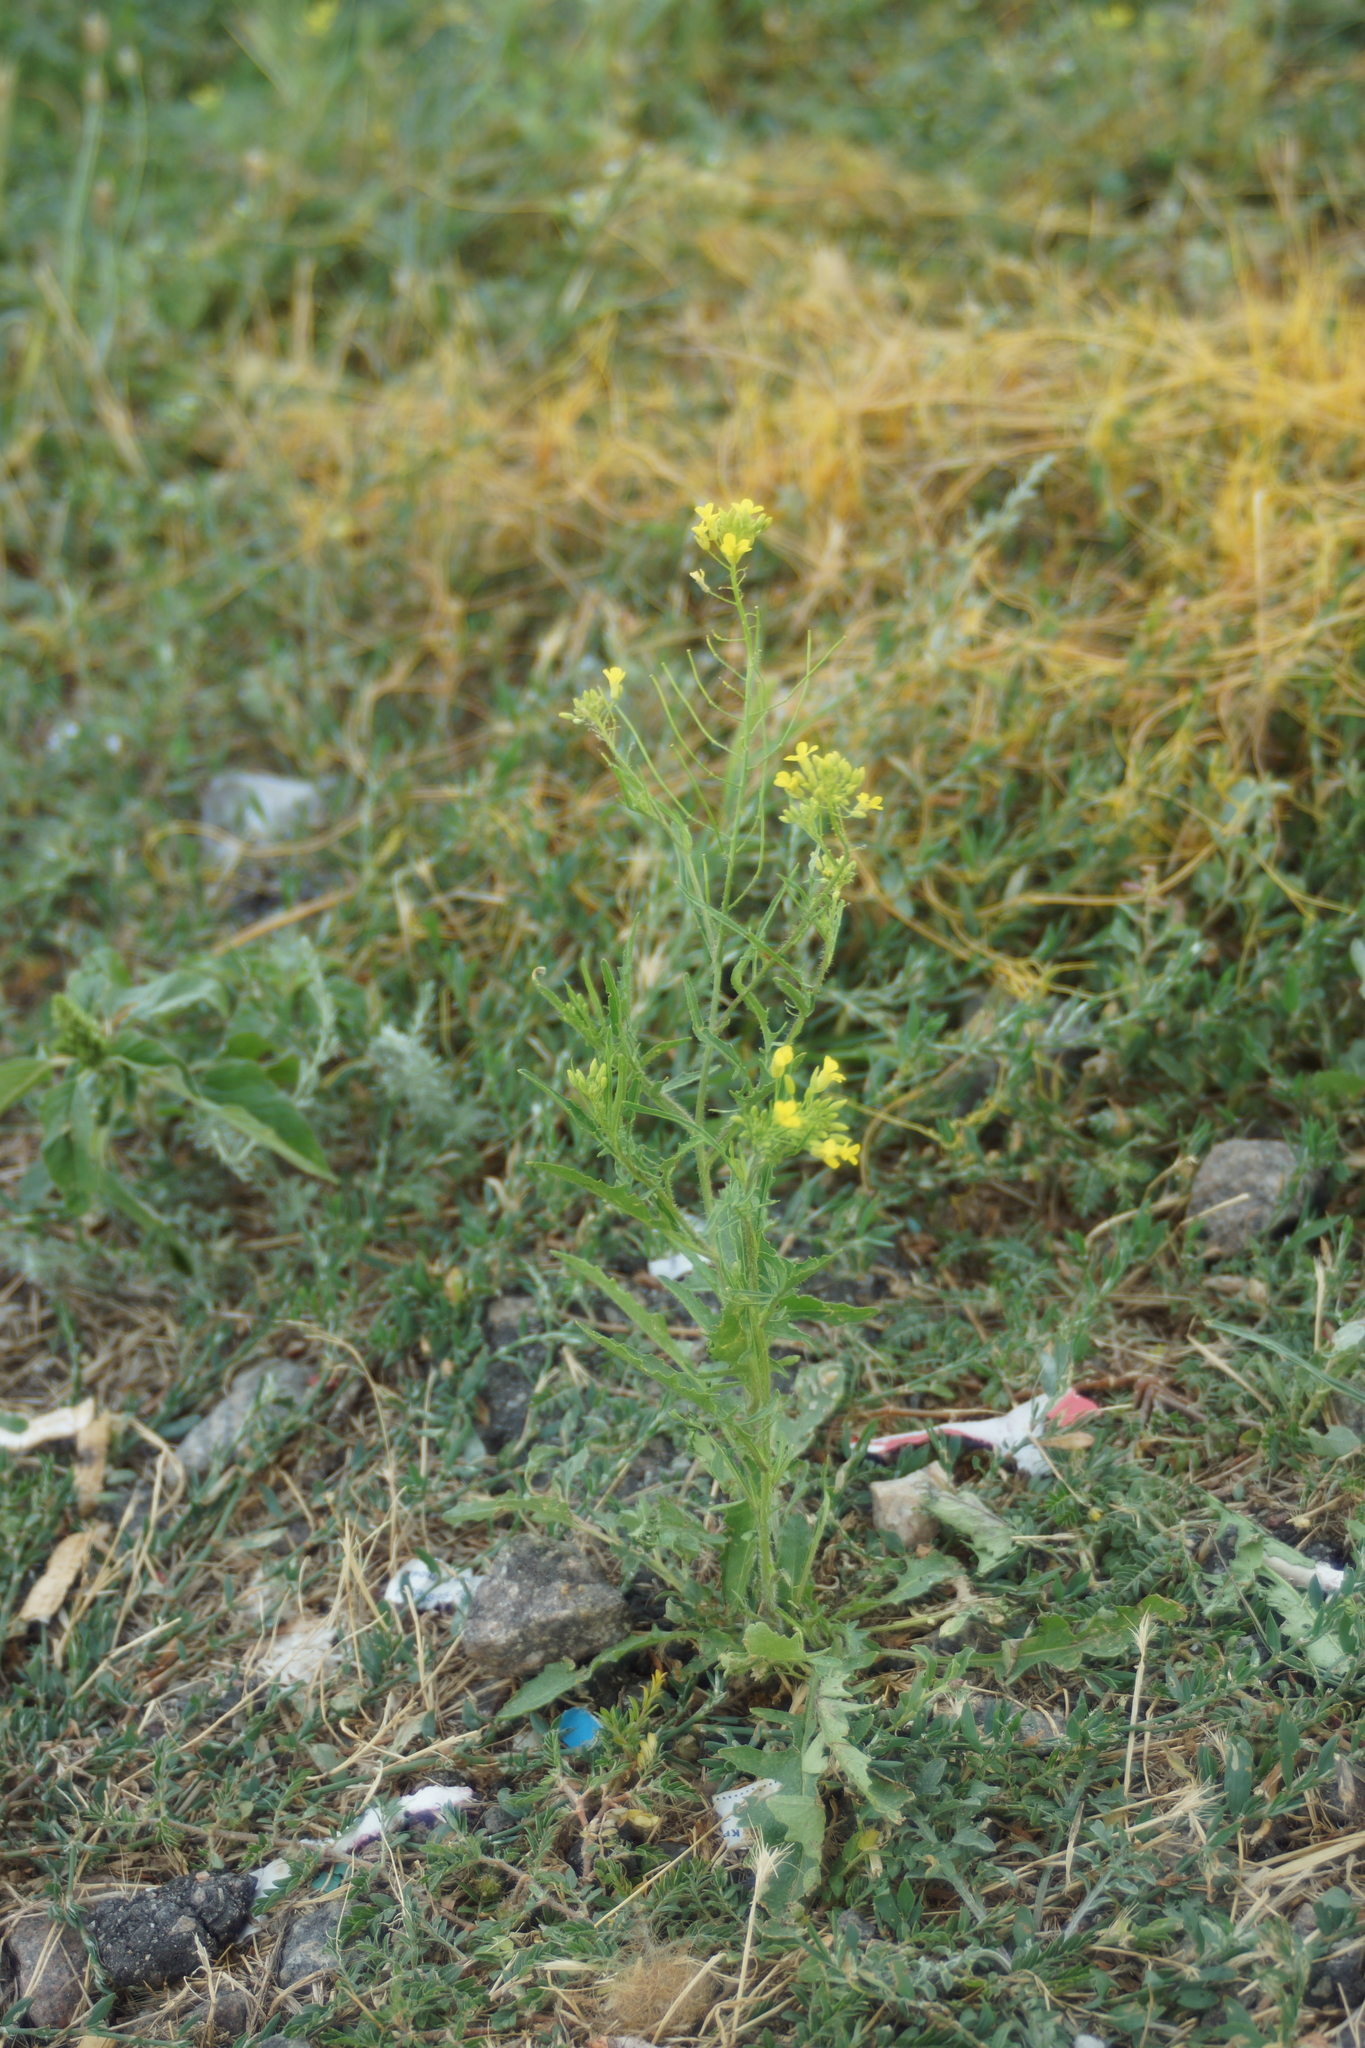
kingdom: Plantae
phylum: Tracheophyta
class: Magnoliopsida
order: Brassicales
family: Brassicaceae
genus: Sisymbrium
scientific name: Sisymbrium loeselii
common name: False london-rocket
